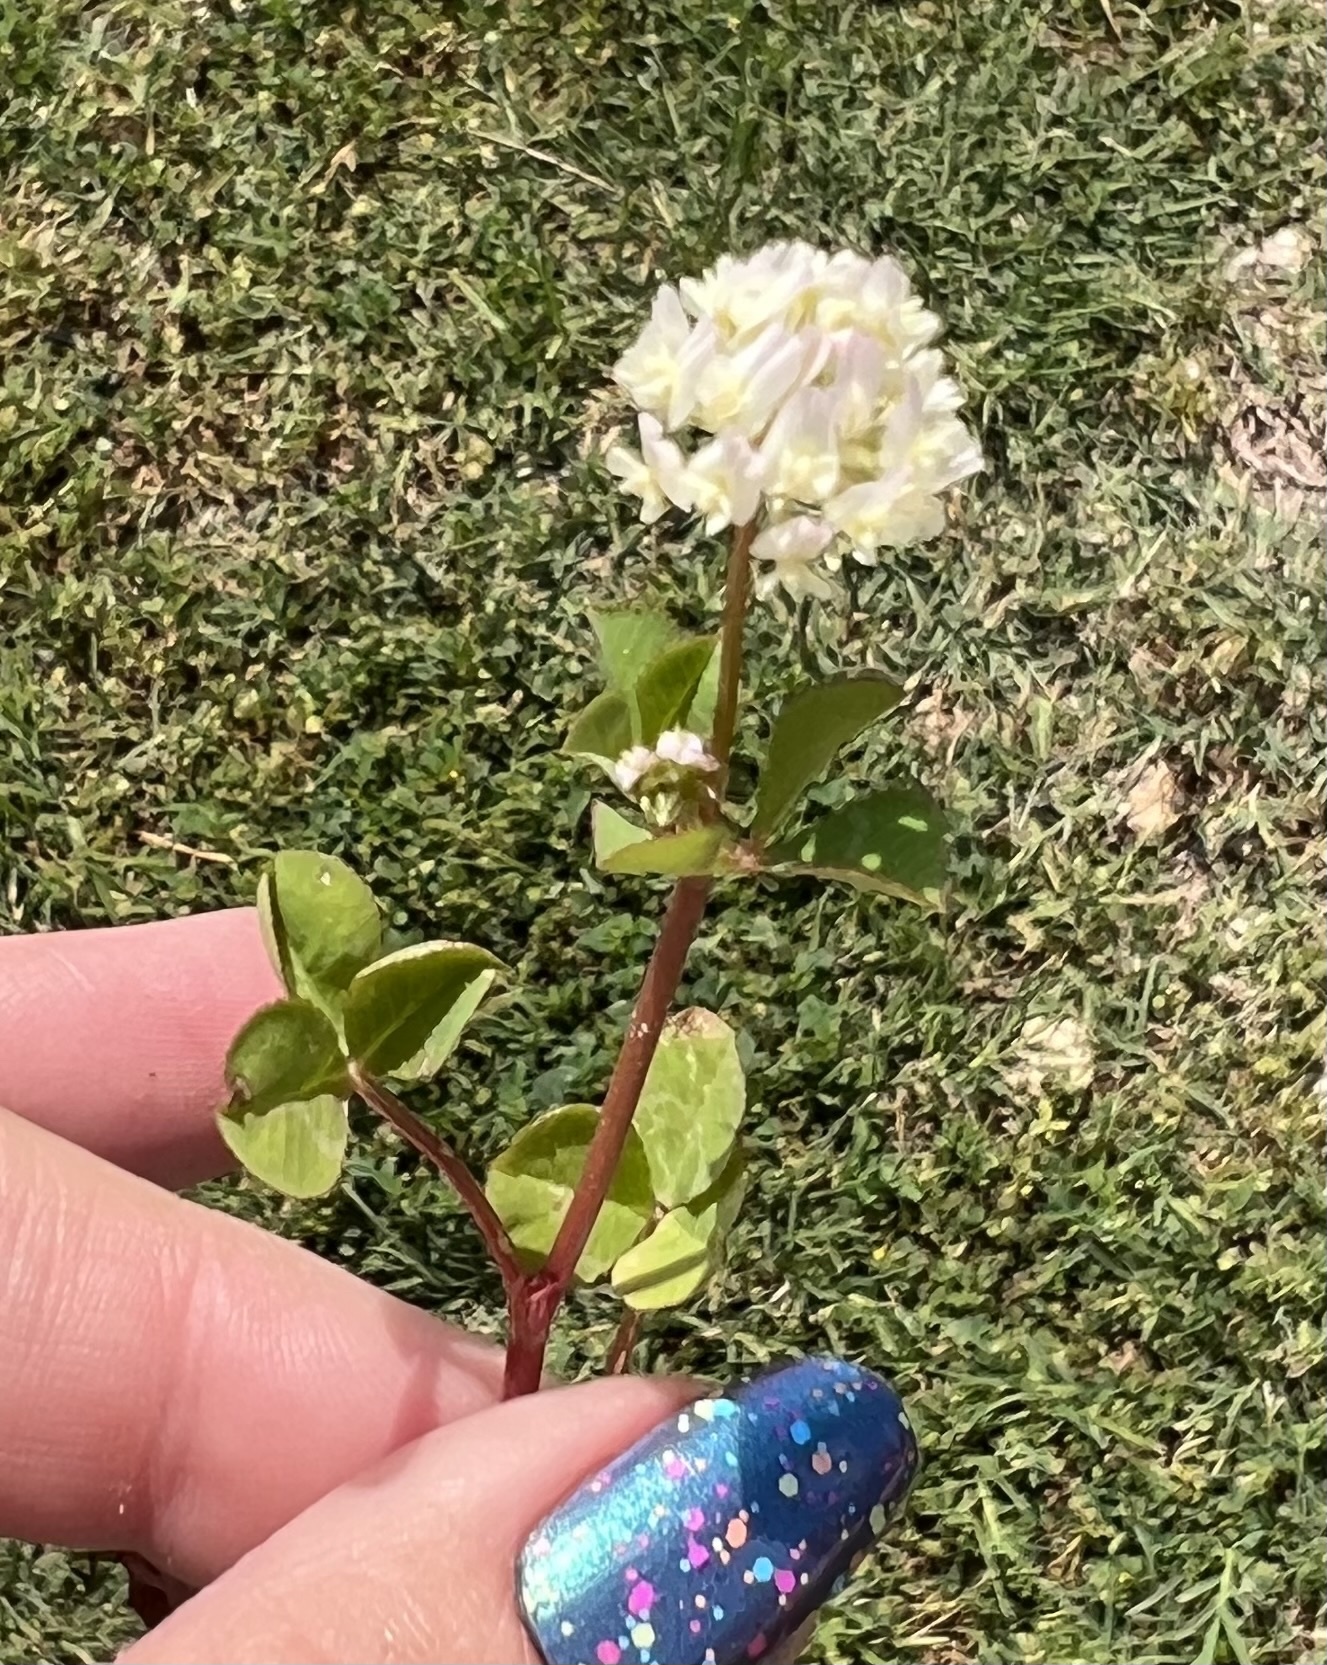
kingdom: Plantae
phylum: Tracheophyta
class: Magnoliopsida
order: Fabales
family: Fabaceae
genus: Trifolium
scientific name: Trifolium nigrescens
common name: Small white clover
